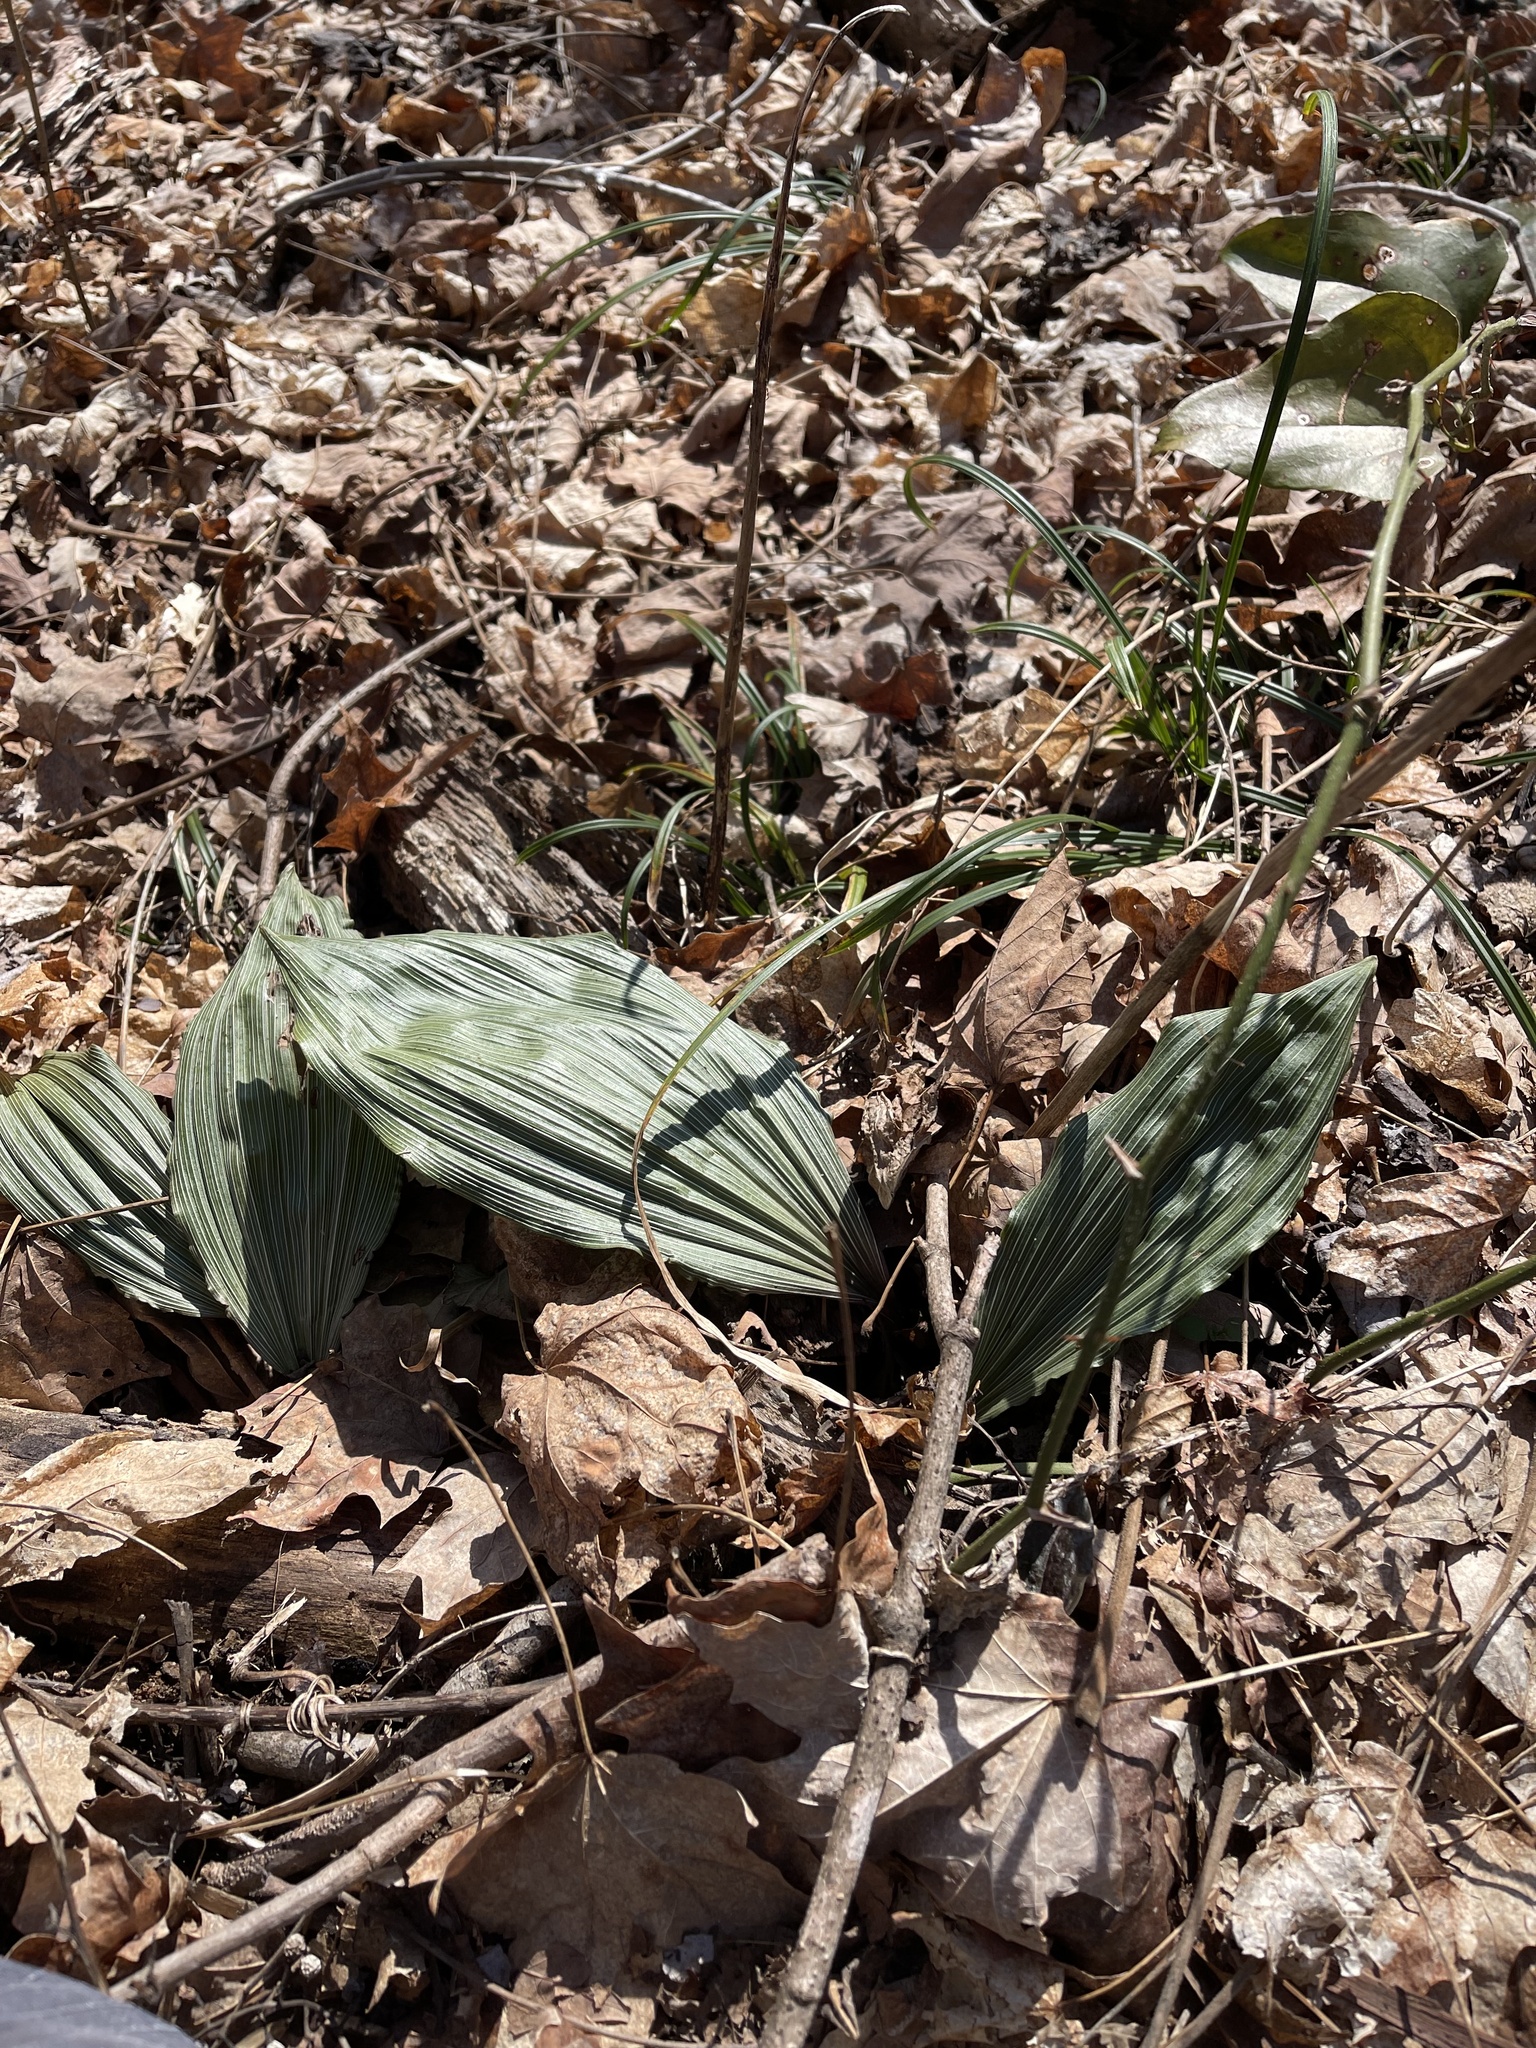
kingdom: Plantae
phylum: Tracheophyta
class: Liliopsida
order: Asparagales
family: Orchidaceae
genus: Aplectrum
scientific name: Aplectrum hyemale
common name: Adam-and-eve
